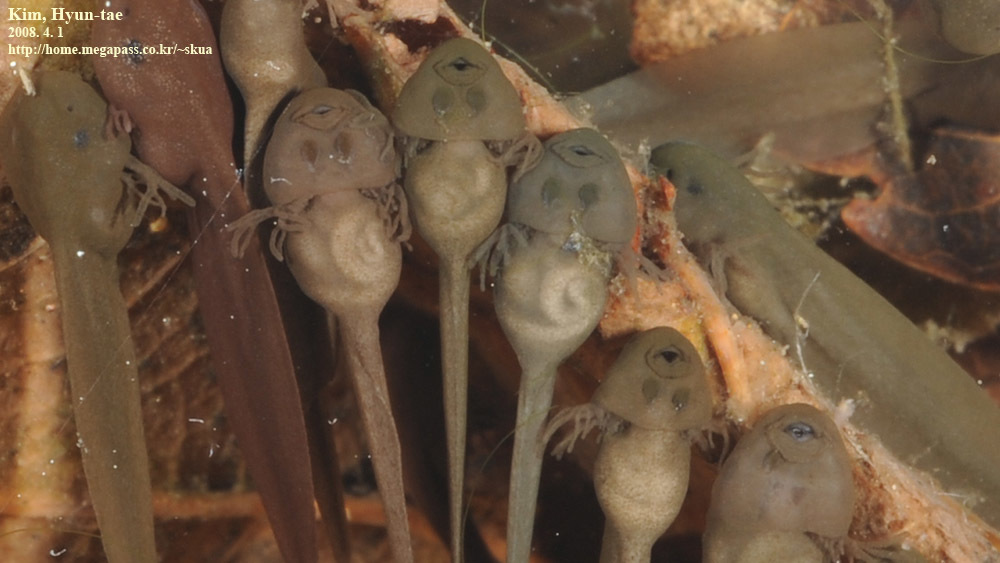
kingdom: Animalia
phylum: Chordata
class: Amphibia
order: Anura
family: Ranidae
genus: Rana
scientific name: Rana uenoi
